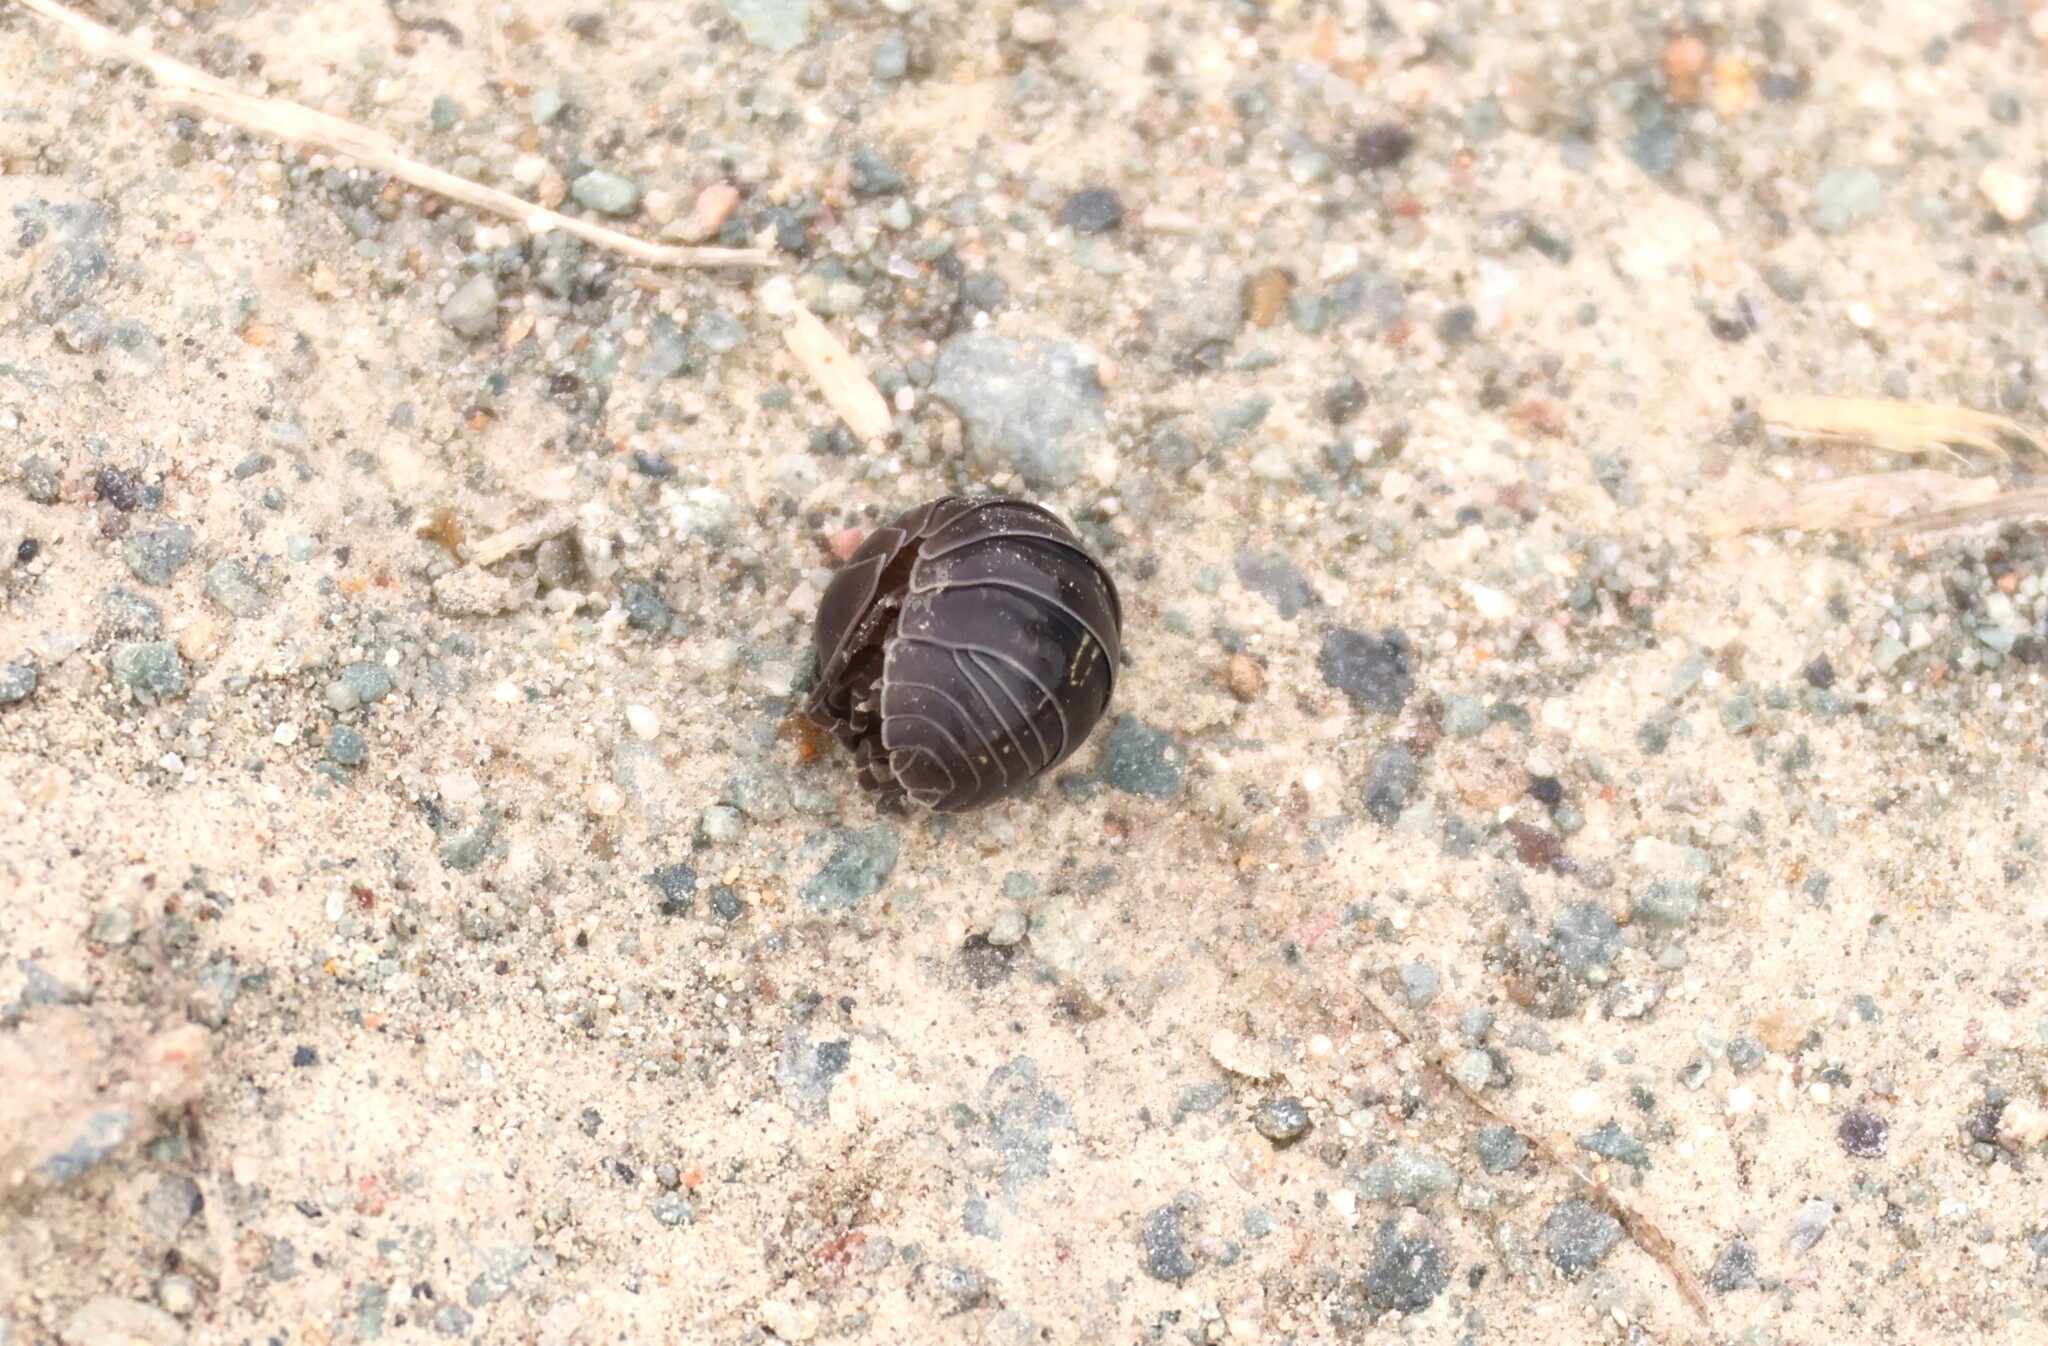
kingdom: Animalia
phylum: Arthropoda
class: Malacostraca
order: Isopoda
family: Armadillidiidae
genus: Armadillidium
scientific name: Armadillidium vulgare
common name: Common pill woodlouse
